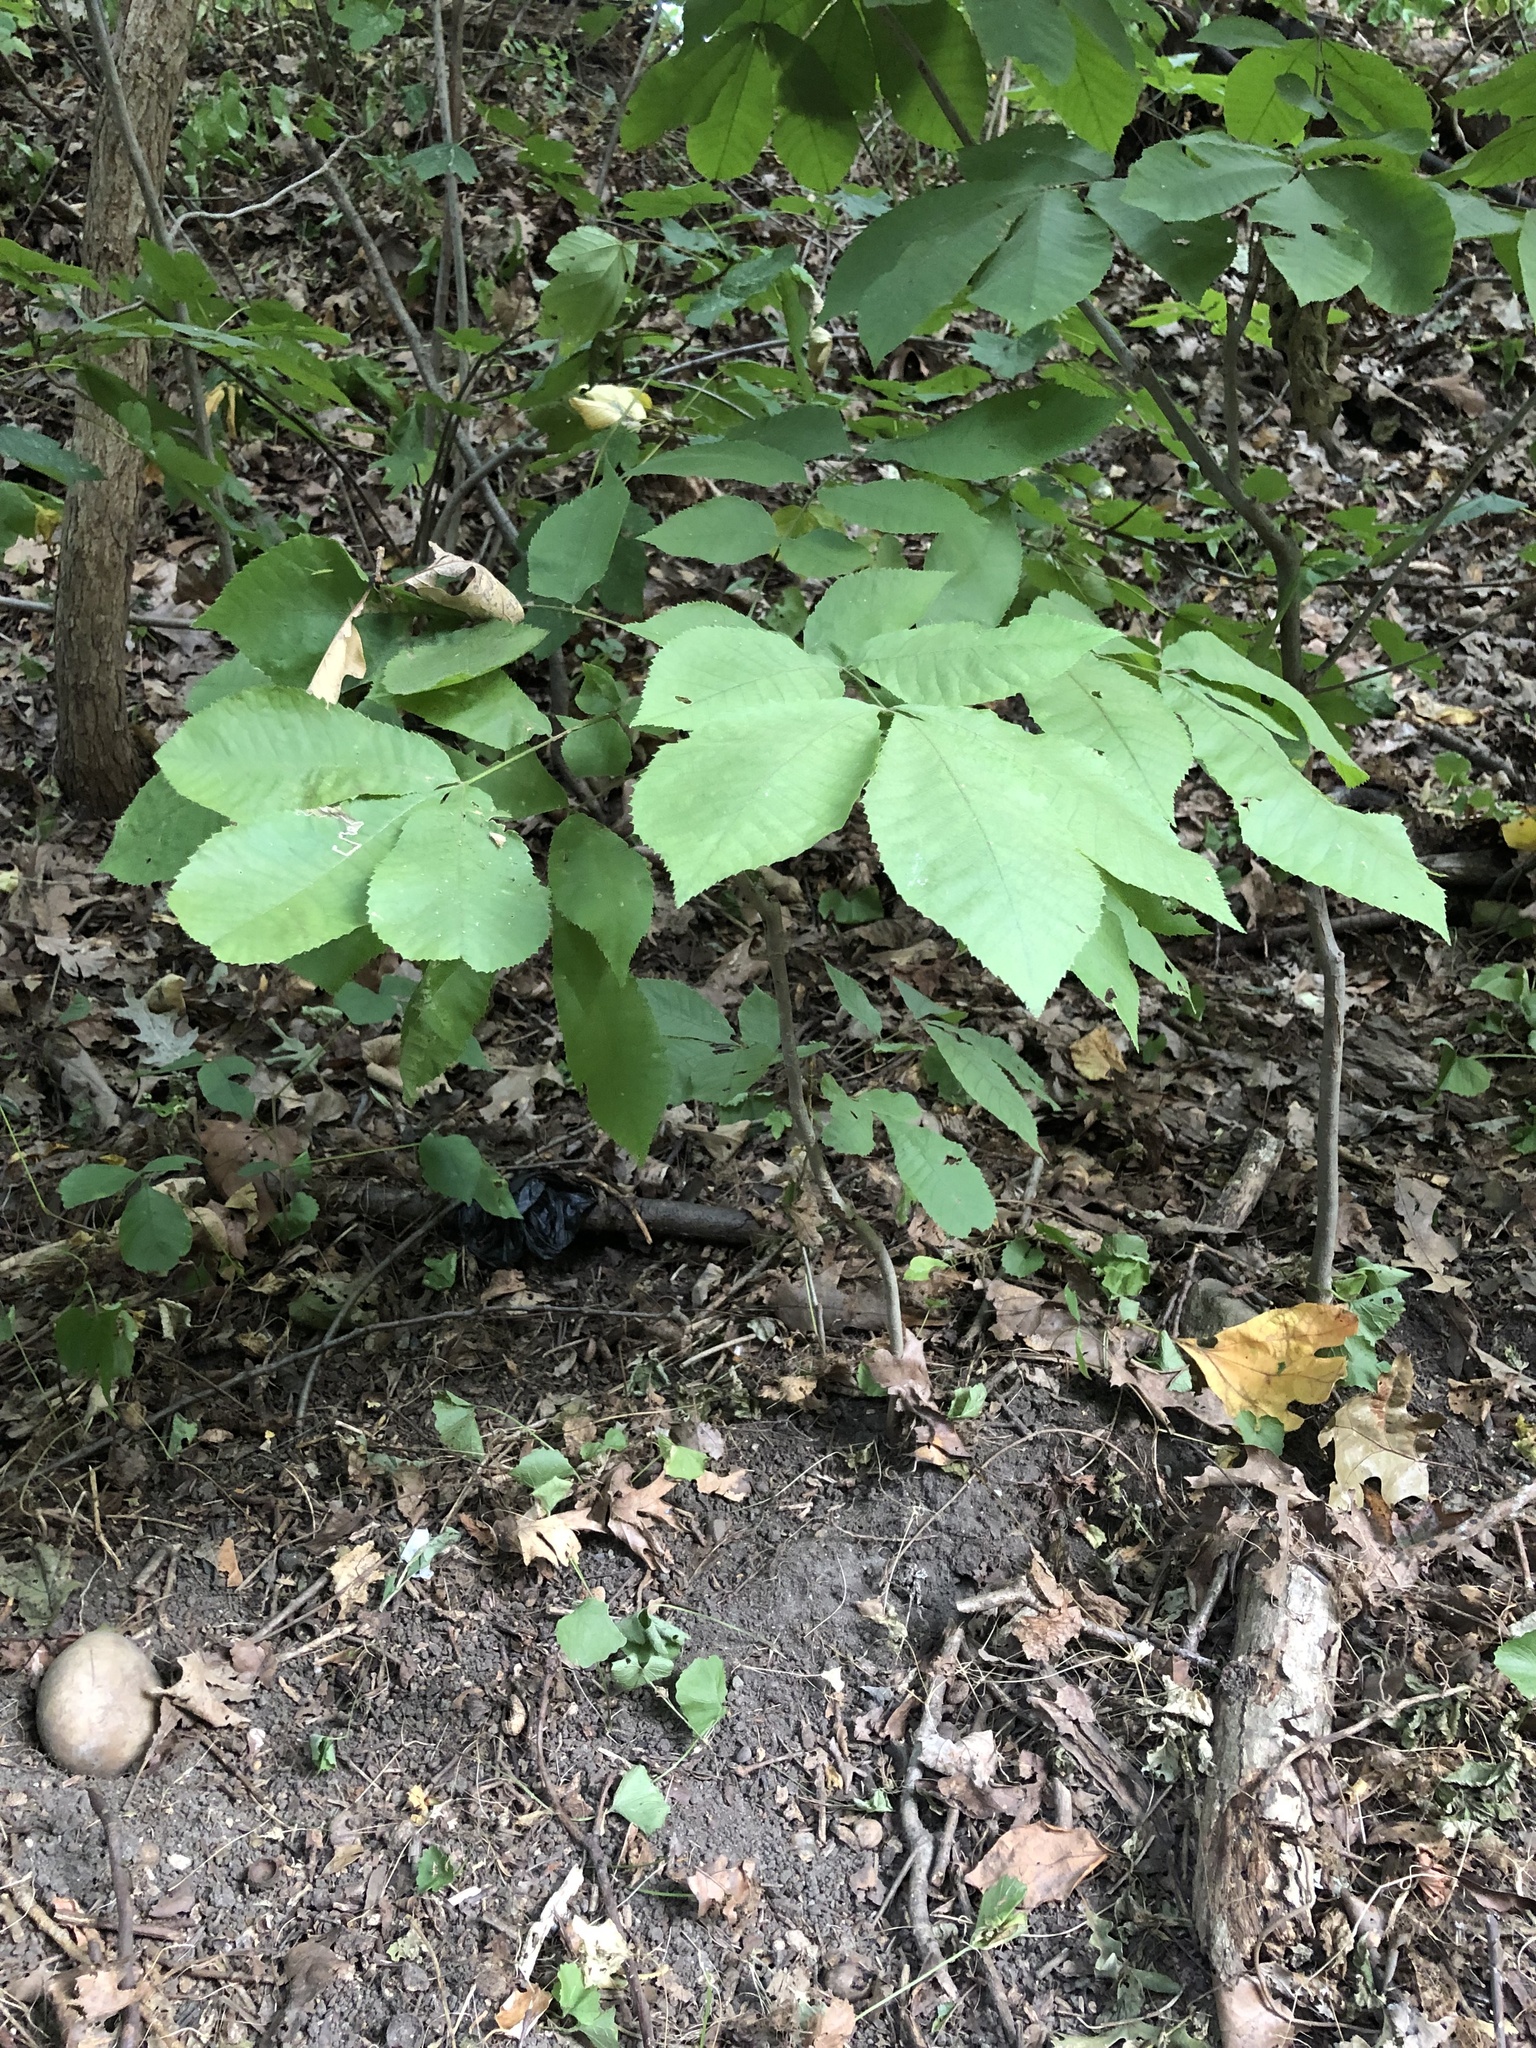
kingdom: Plantae
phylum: Tracheophyta
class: Magnoliopsida
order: Fagales
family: Juglandaceae
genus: Carya
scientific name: Carya alba
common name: Mockernut hickory
